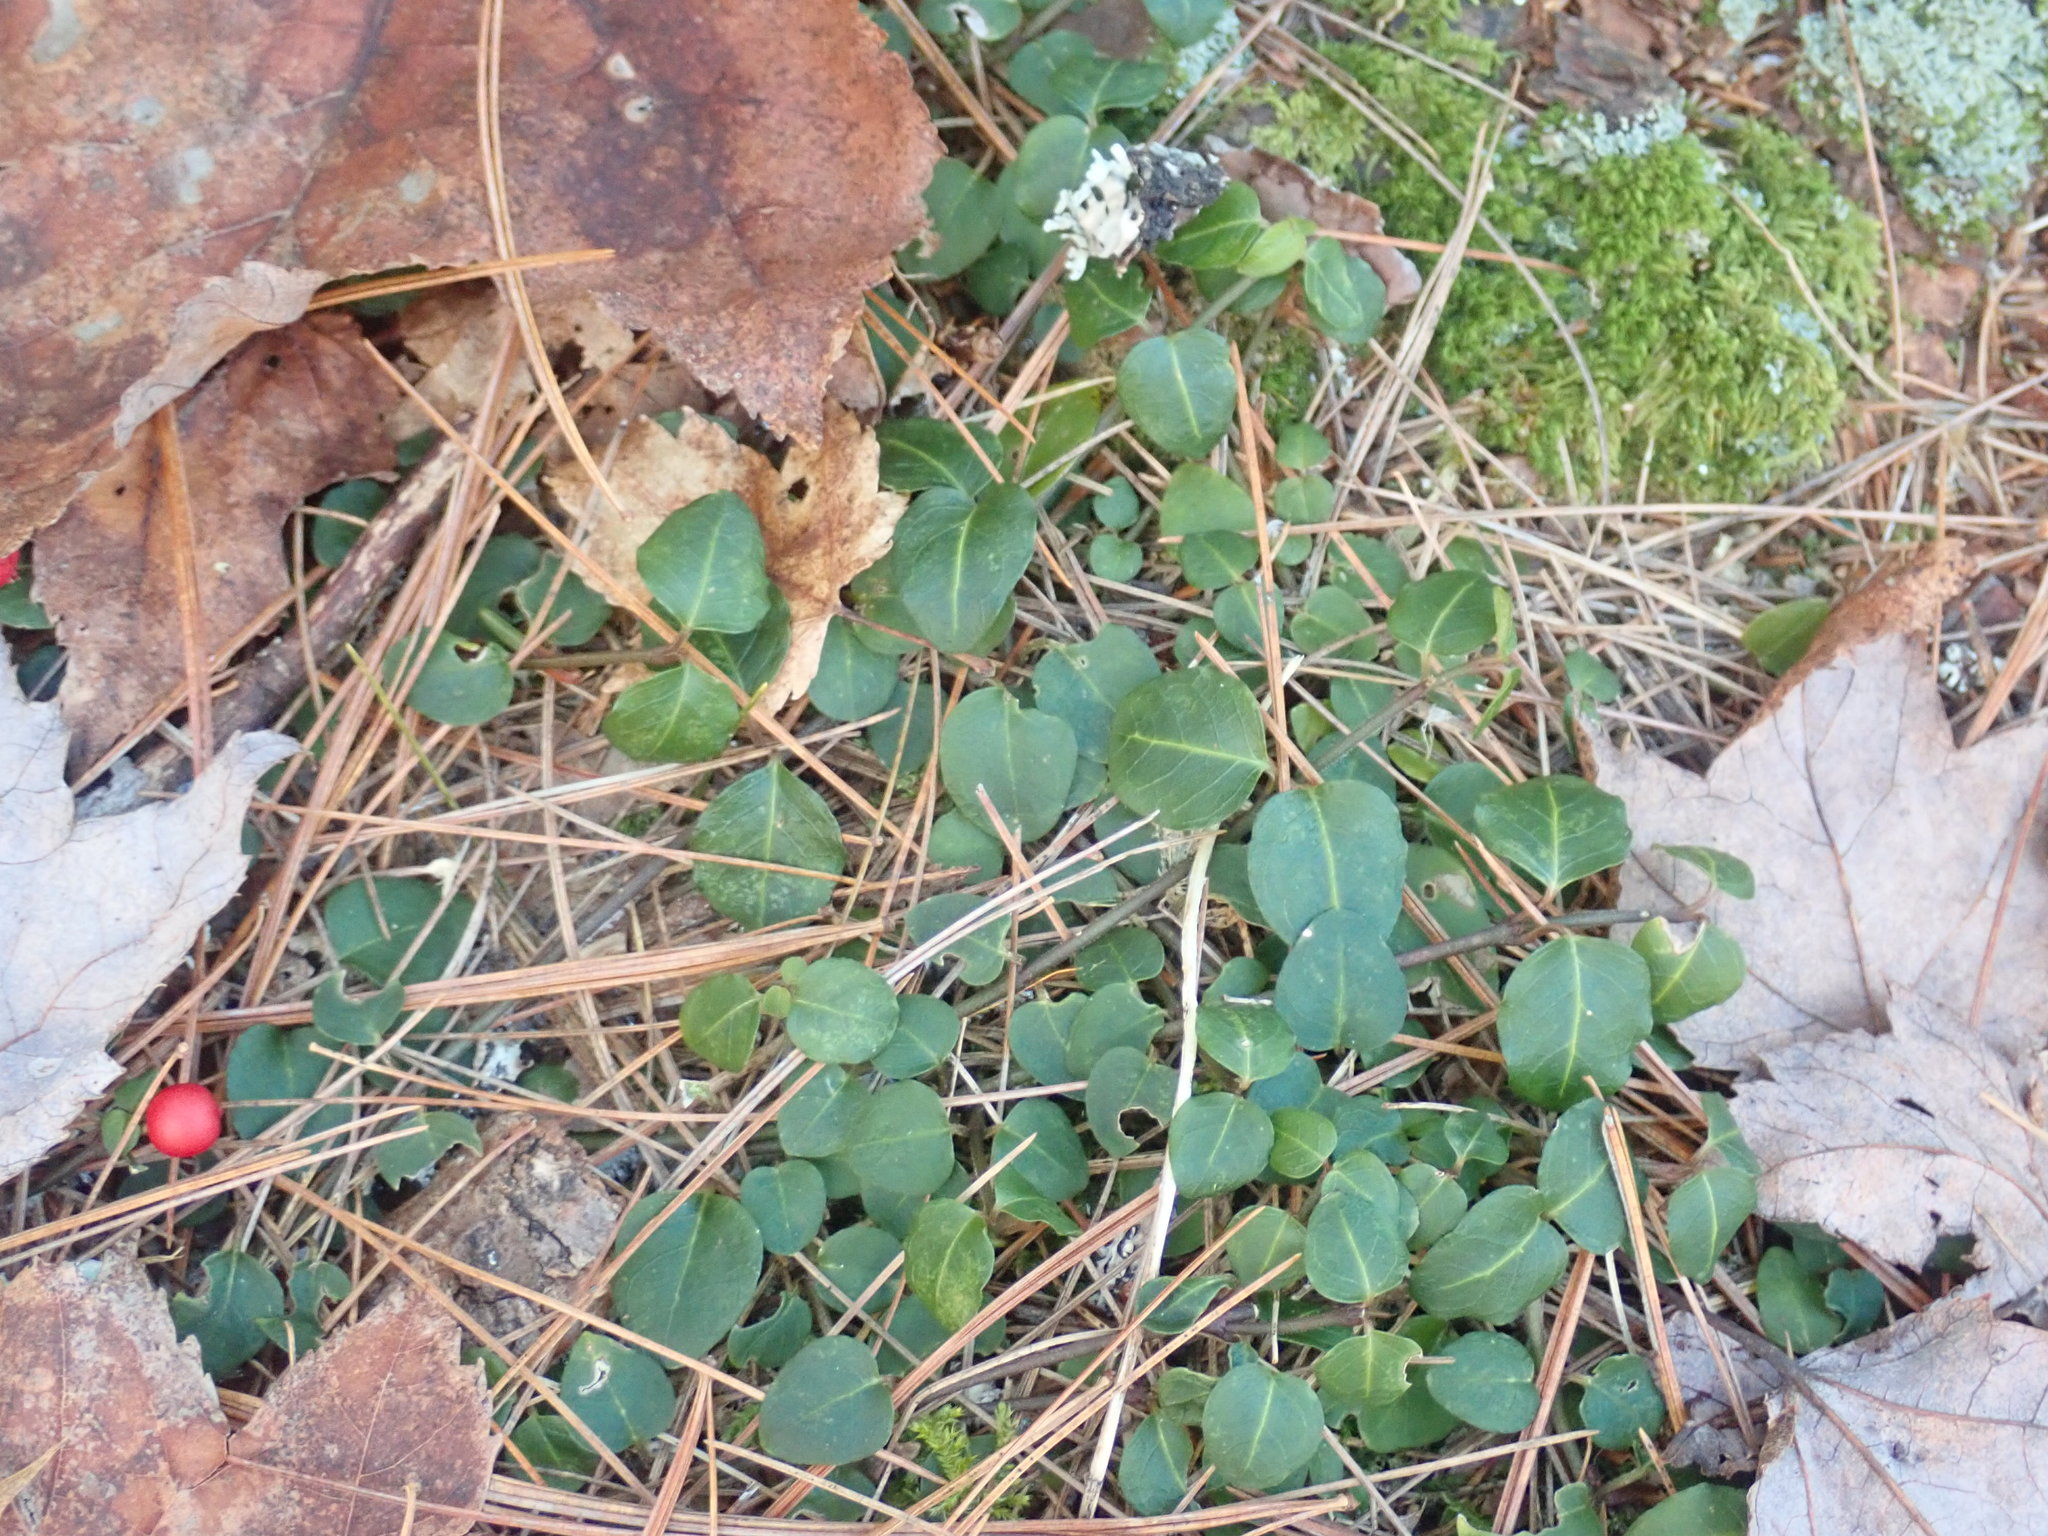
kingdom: Plantae
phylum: Tracheophyta
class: Magnoliopsida
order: Gentianales
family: Rubiaceae
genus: Mitchella
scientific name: Mitchella repens
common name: Partridge-berry
